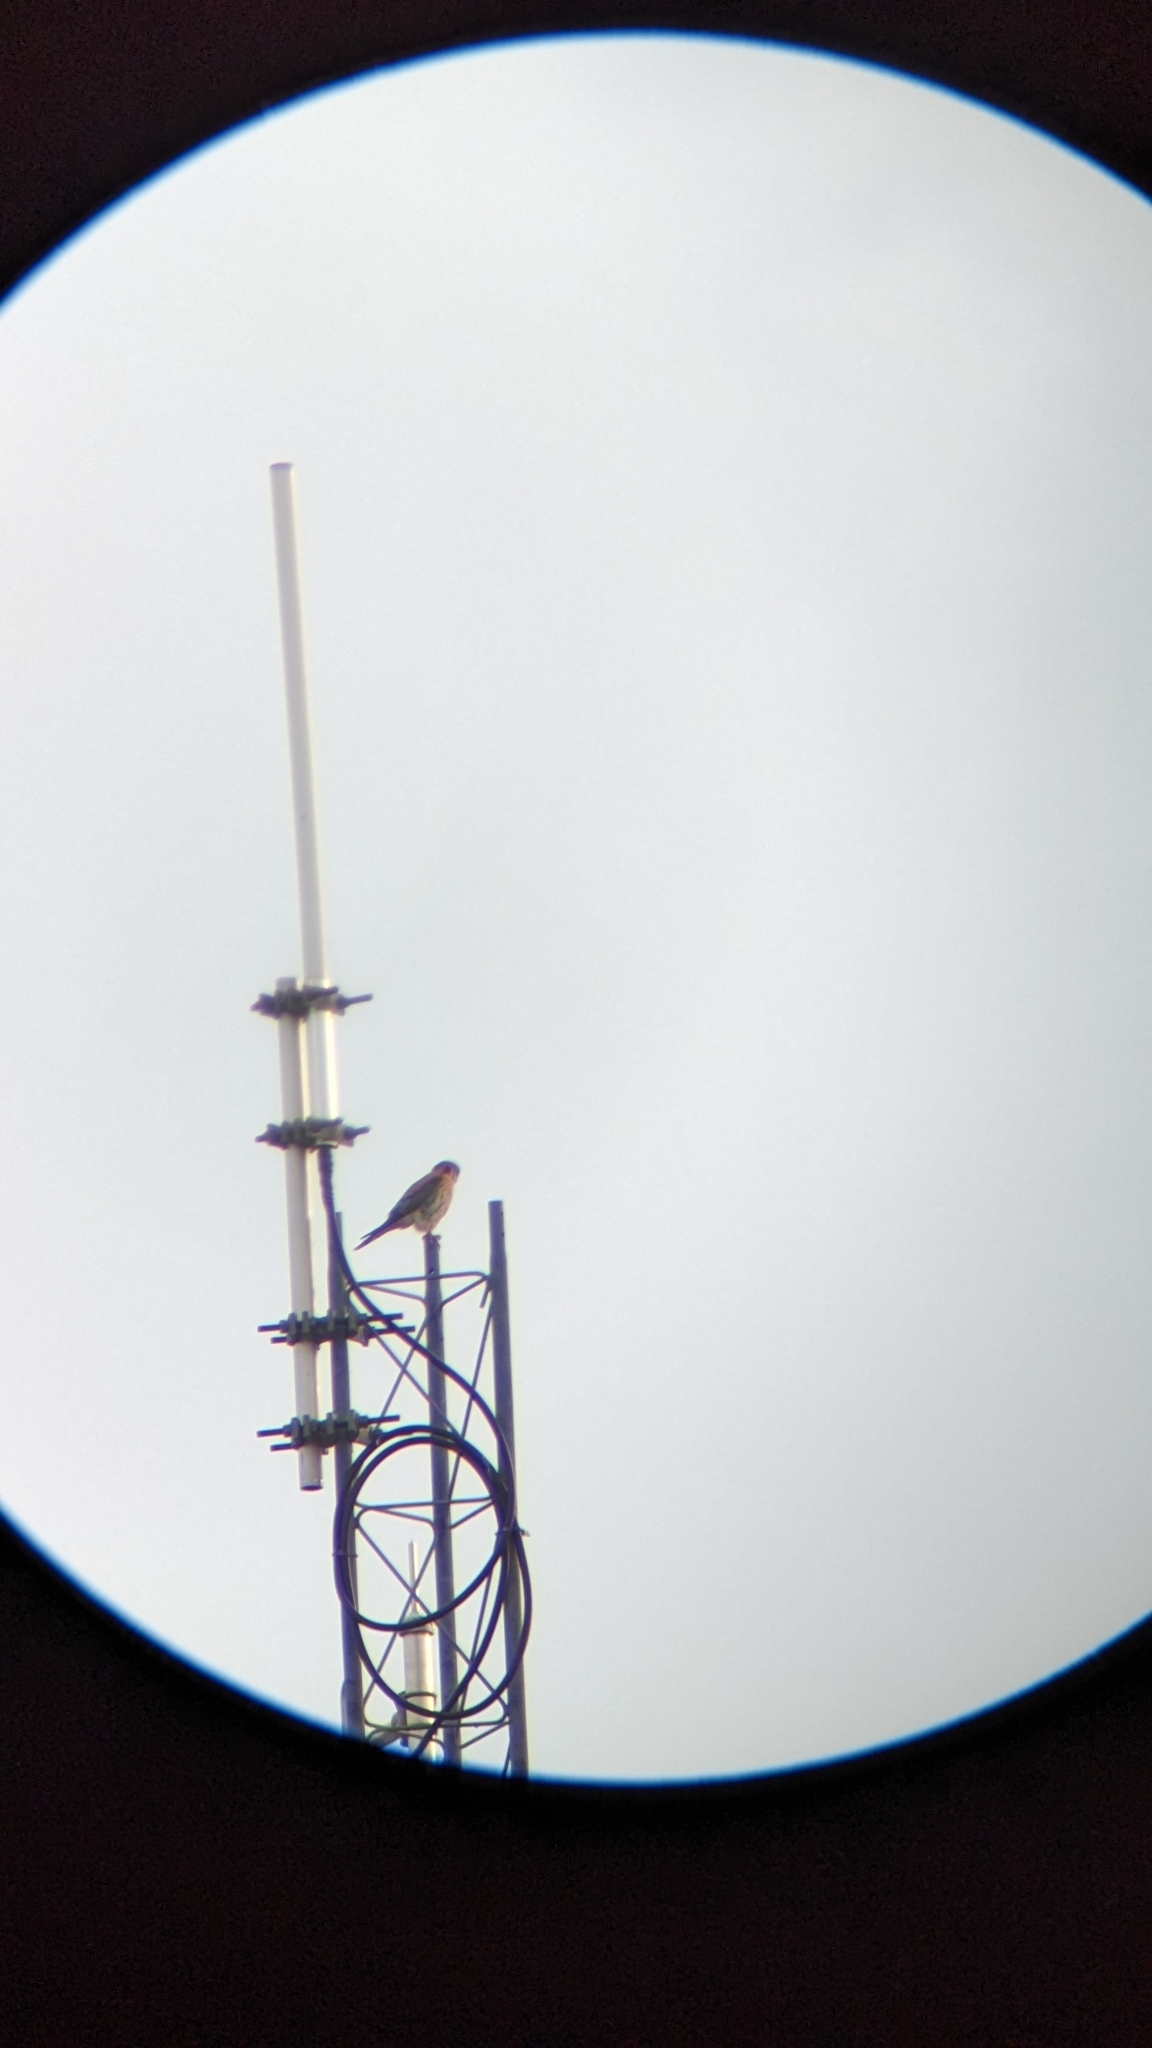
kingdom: Animalia
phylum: Chordata
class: Aves
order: Falconiformes
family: Falconidae
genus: Falco
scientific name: Falco sparverius
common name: American kestrel
